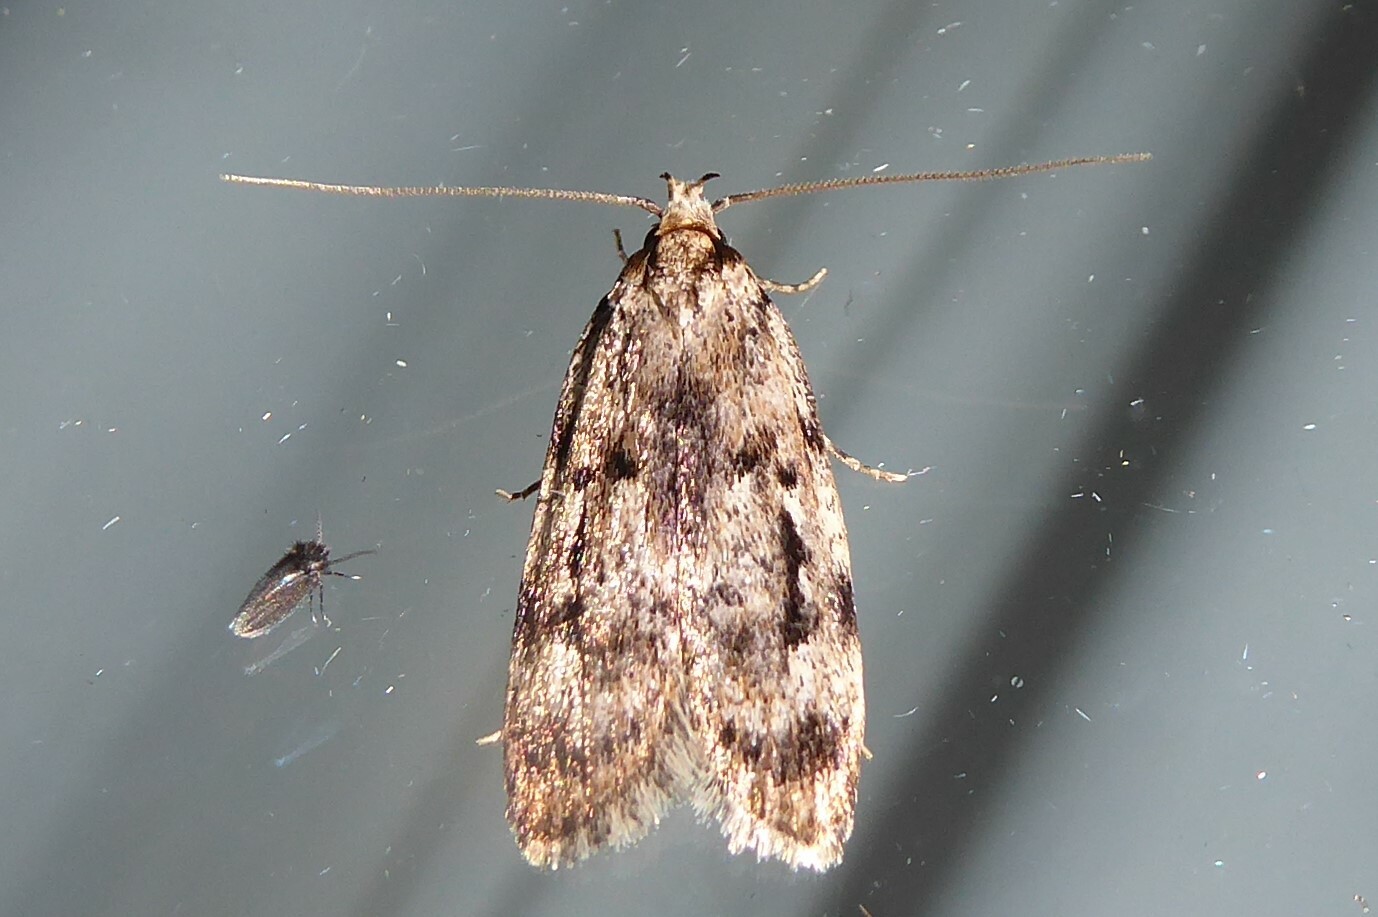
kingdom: Animalia
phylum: Arthropoda
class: Insecta
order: Lepidoptera
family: Oecophoridae
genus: Barea
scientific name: Barea exarcha
